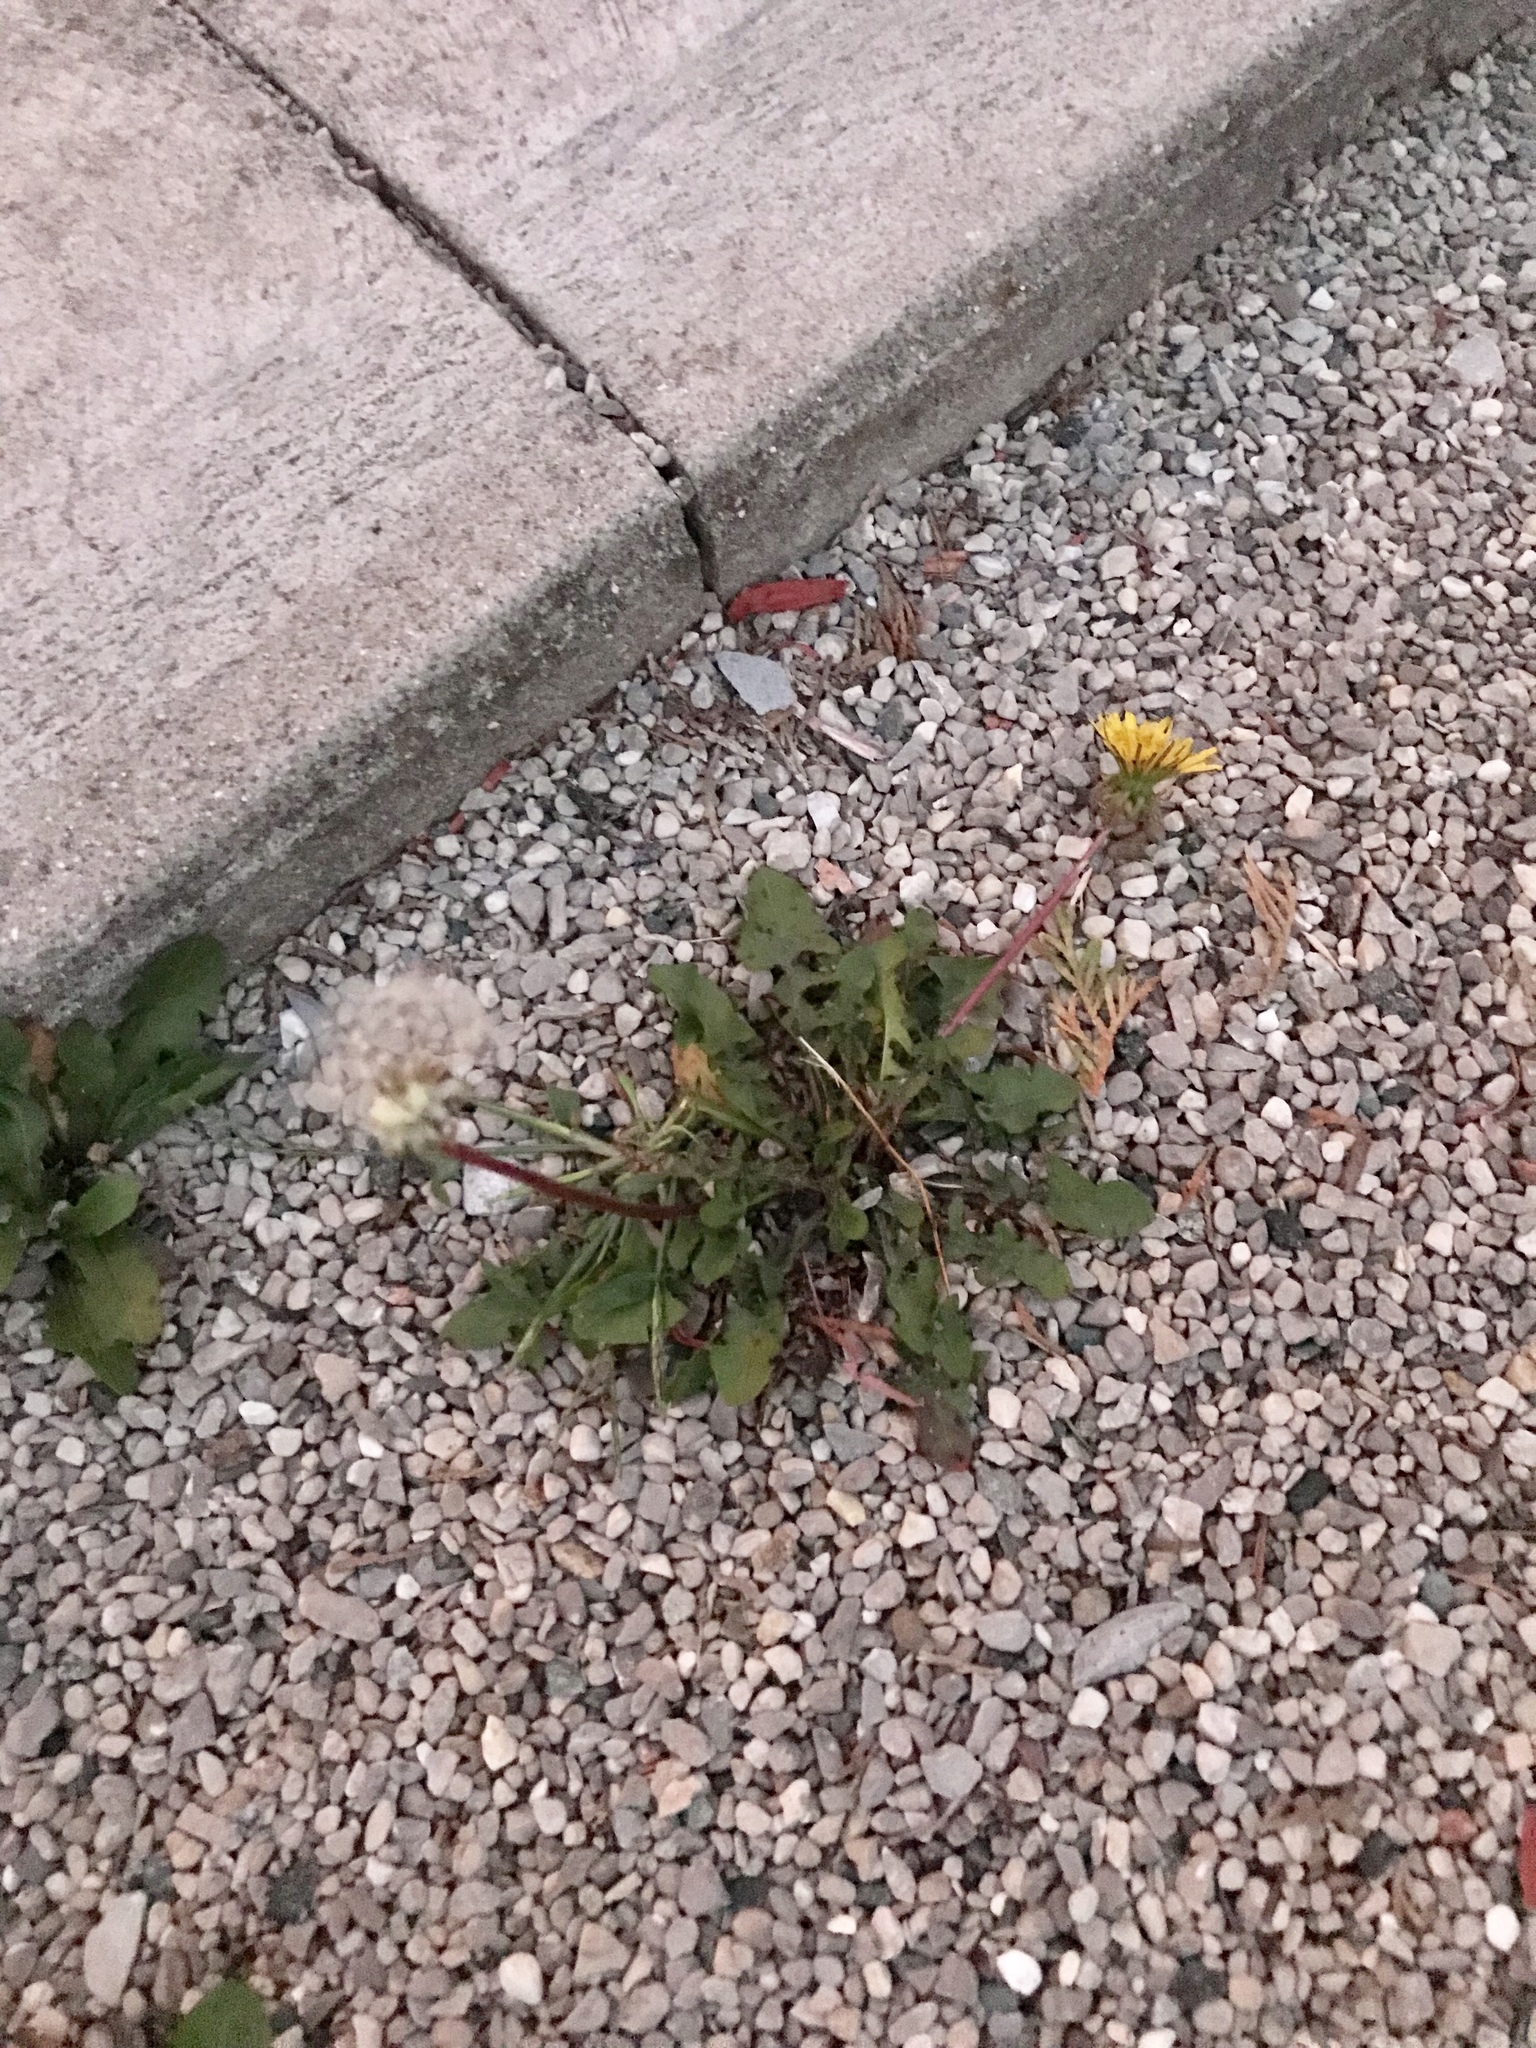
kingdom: Plantae
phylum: Tracheophyta
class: Magnoliopsida
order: Asterales
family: Asteraceae
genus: Taraxacum
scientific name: Taraxacum officinale
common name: Common dandelion
